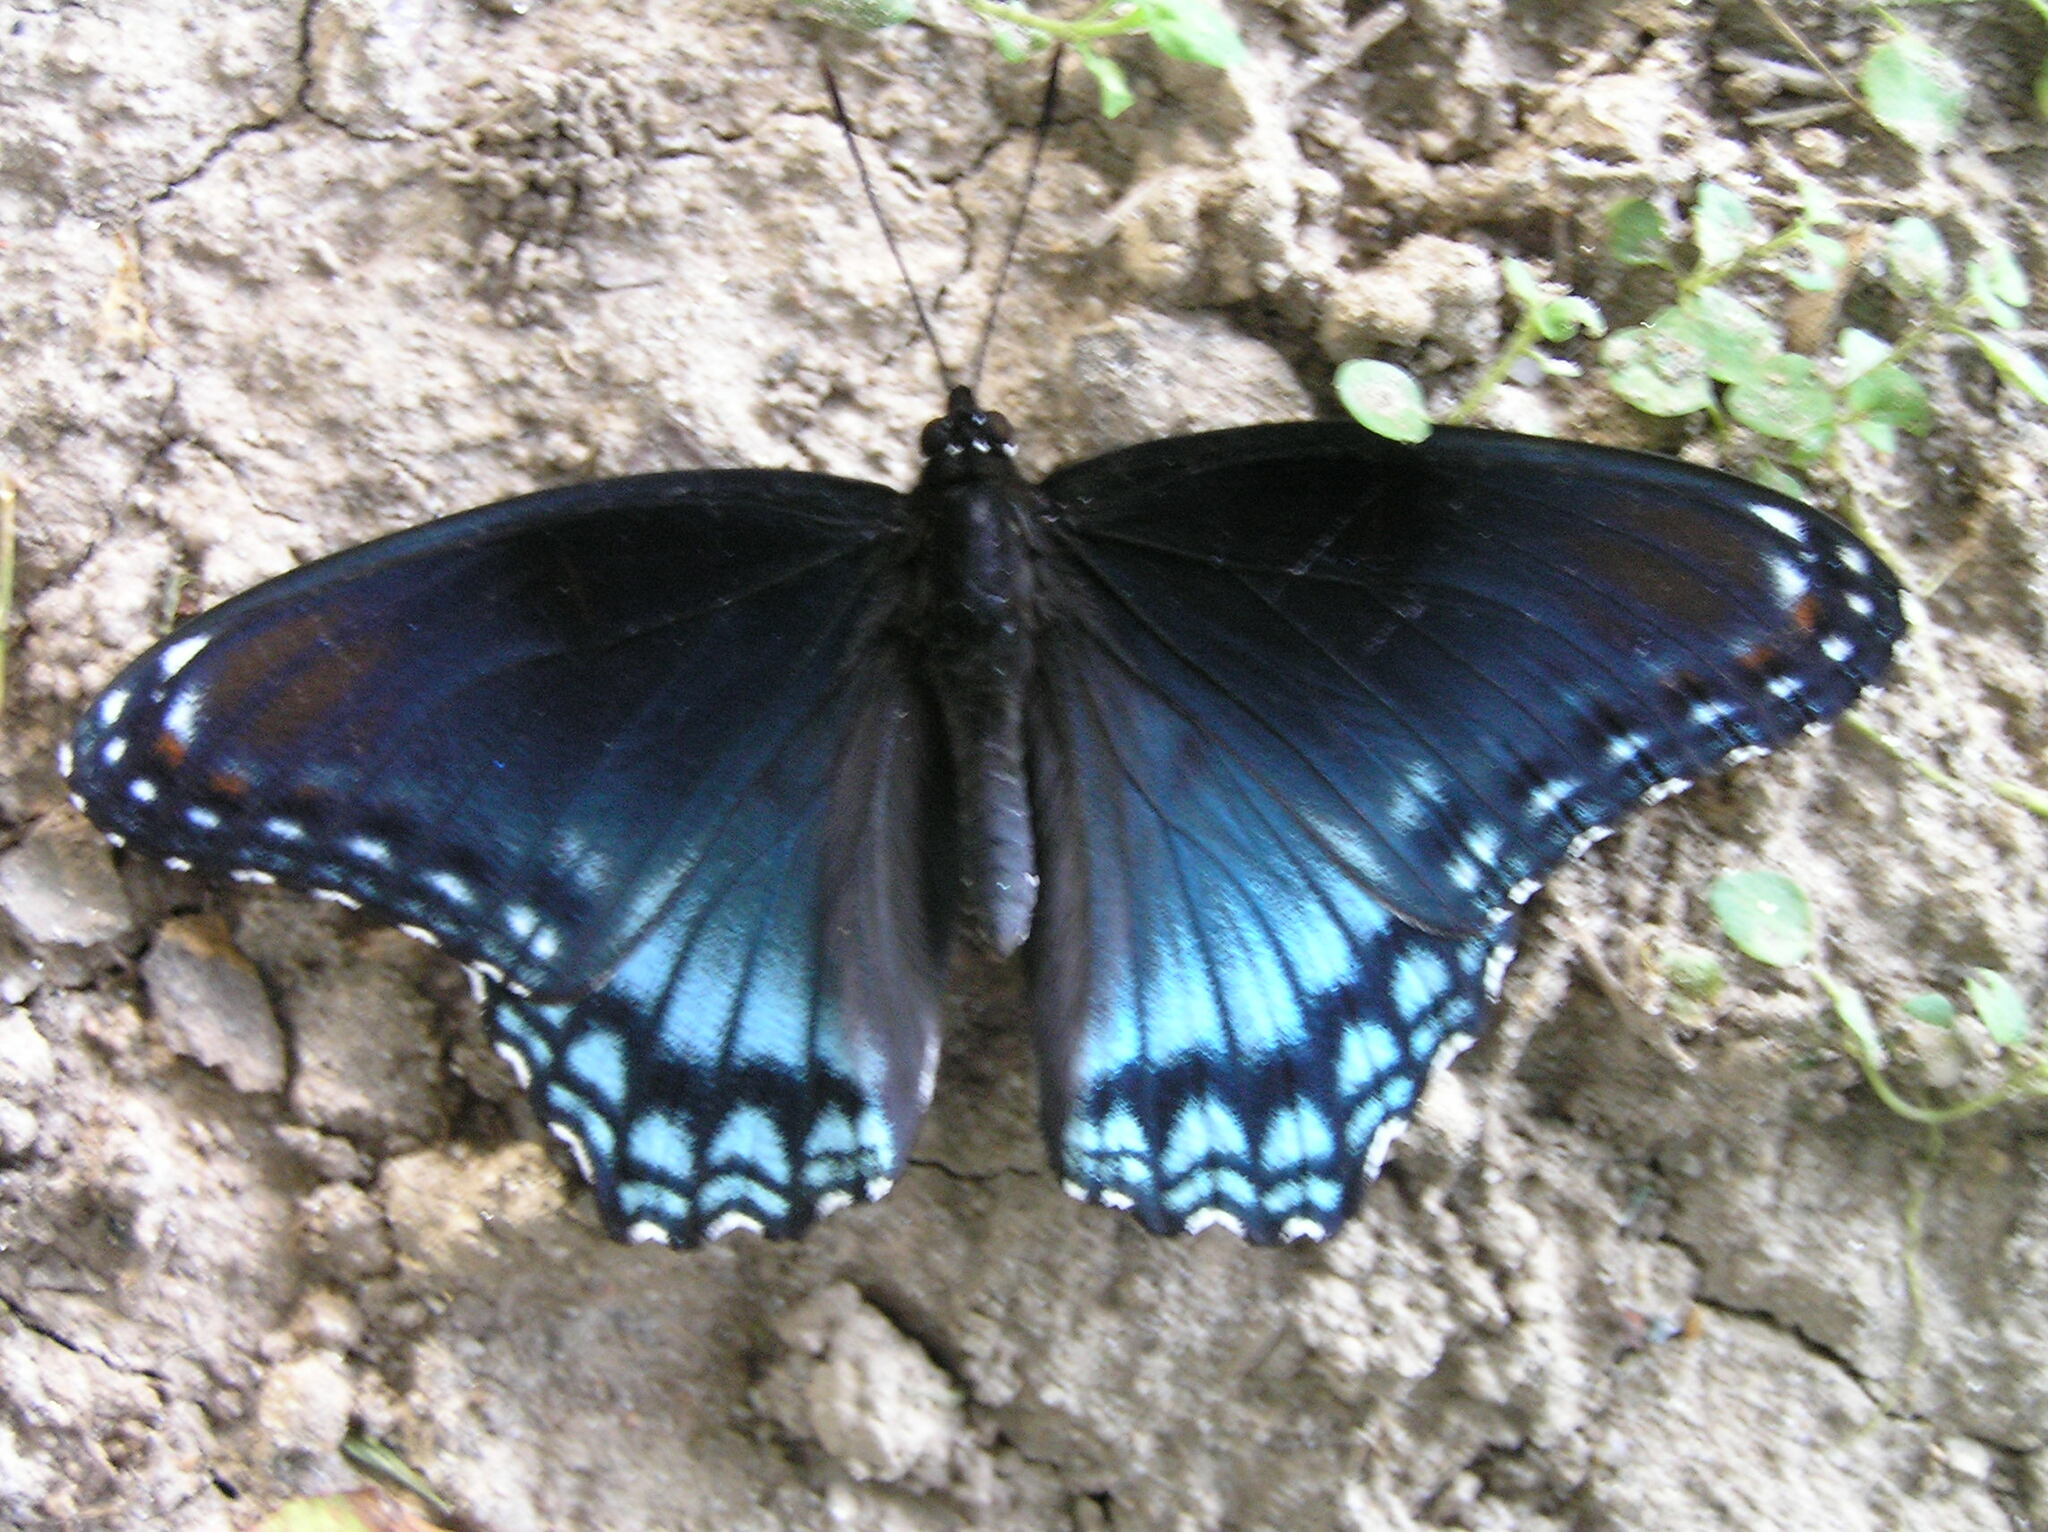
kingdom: Animalia
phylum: Arthropoda
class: Insecta
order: Lepidoptera
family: Nymphalidae
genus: Limenitis
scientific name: Limenitis astyanax
